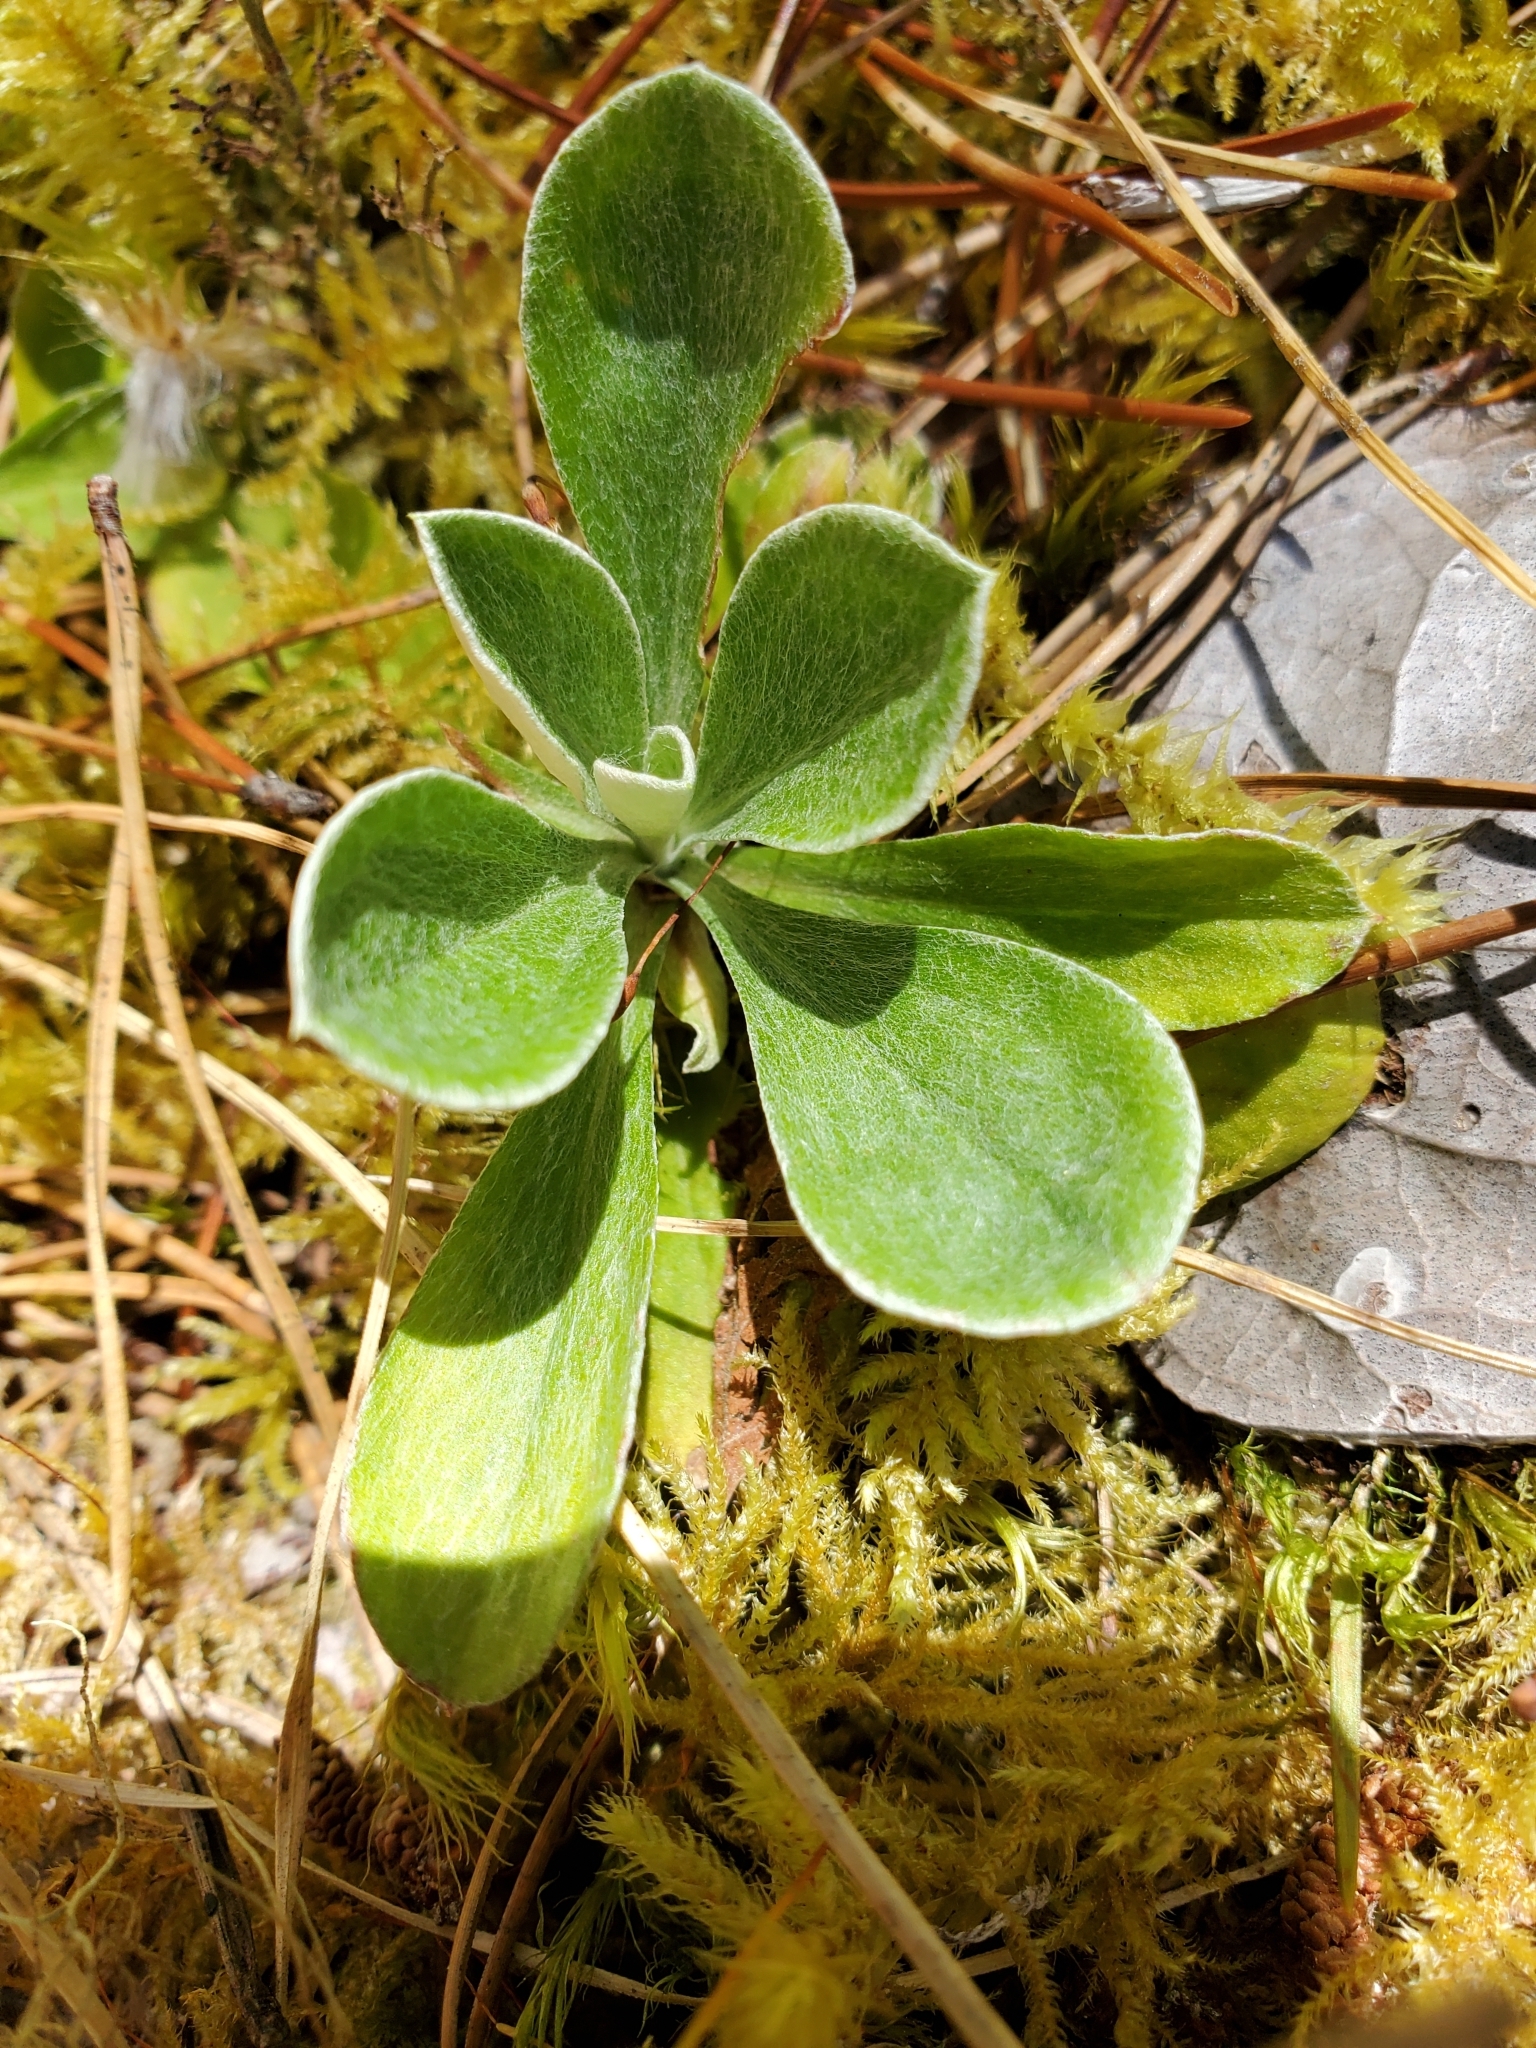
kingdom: Plantae
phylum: Tracheophyta
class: Magnoliopsida
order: Asterales
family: Asteraceae
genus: Antennaria
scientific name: Antennaria howellii
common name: Howell's pussytoes
